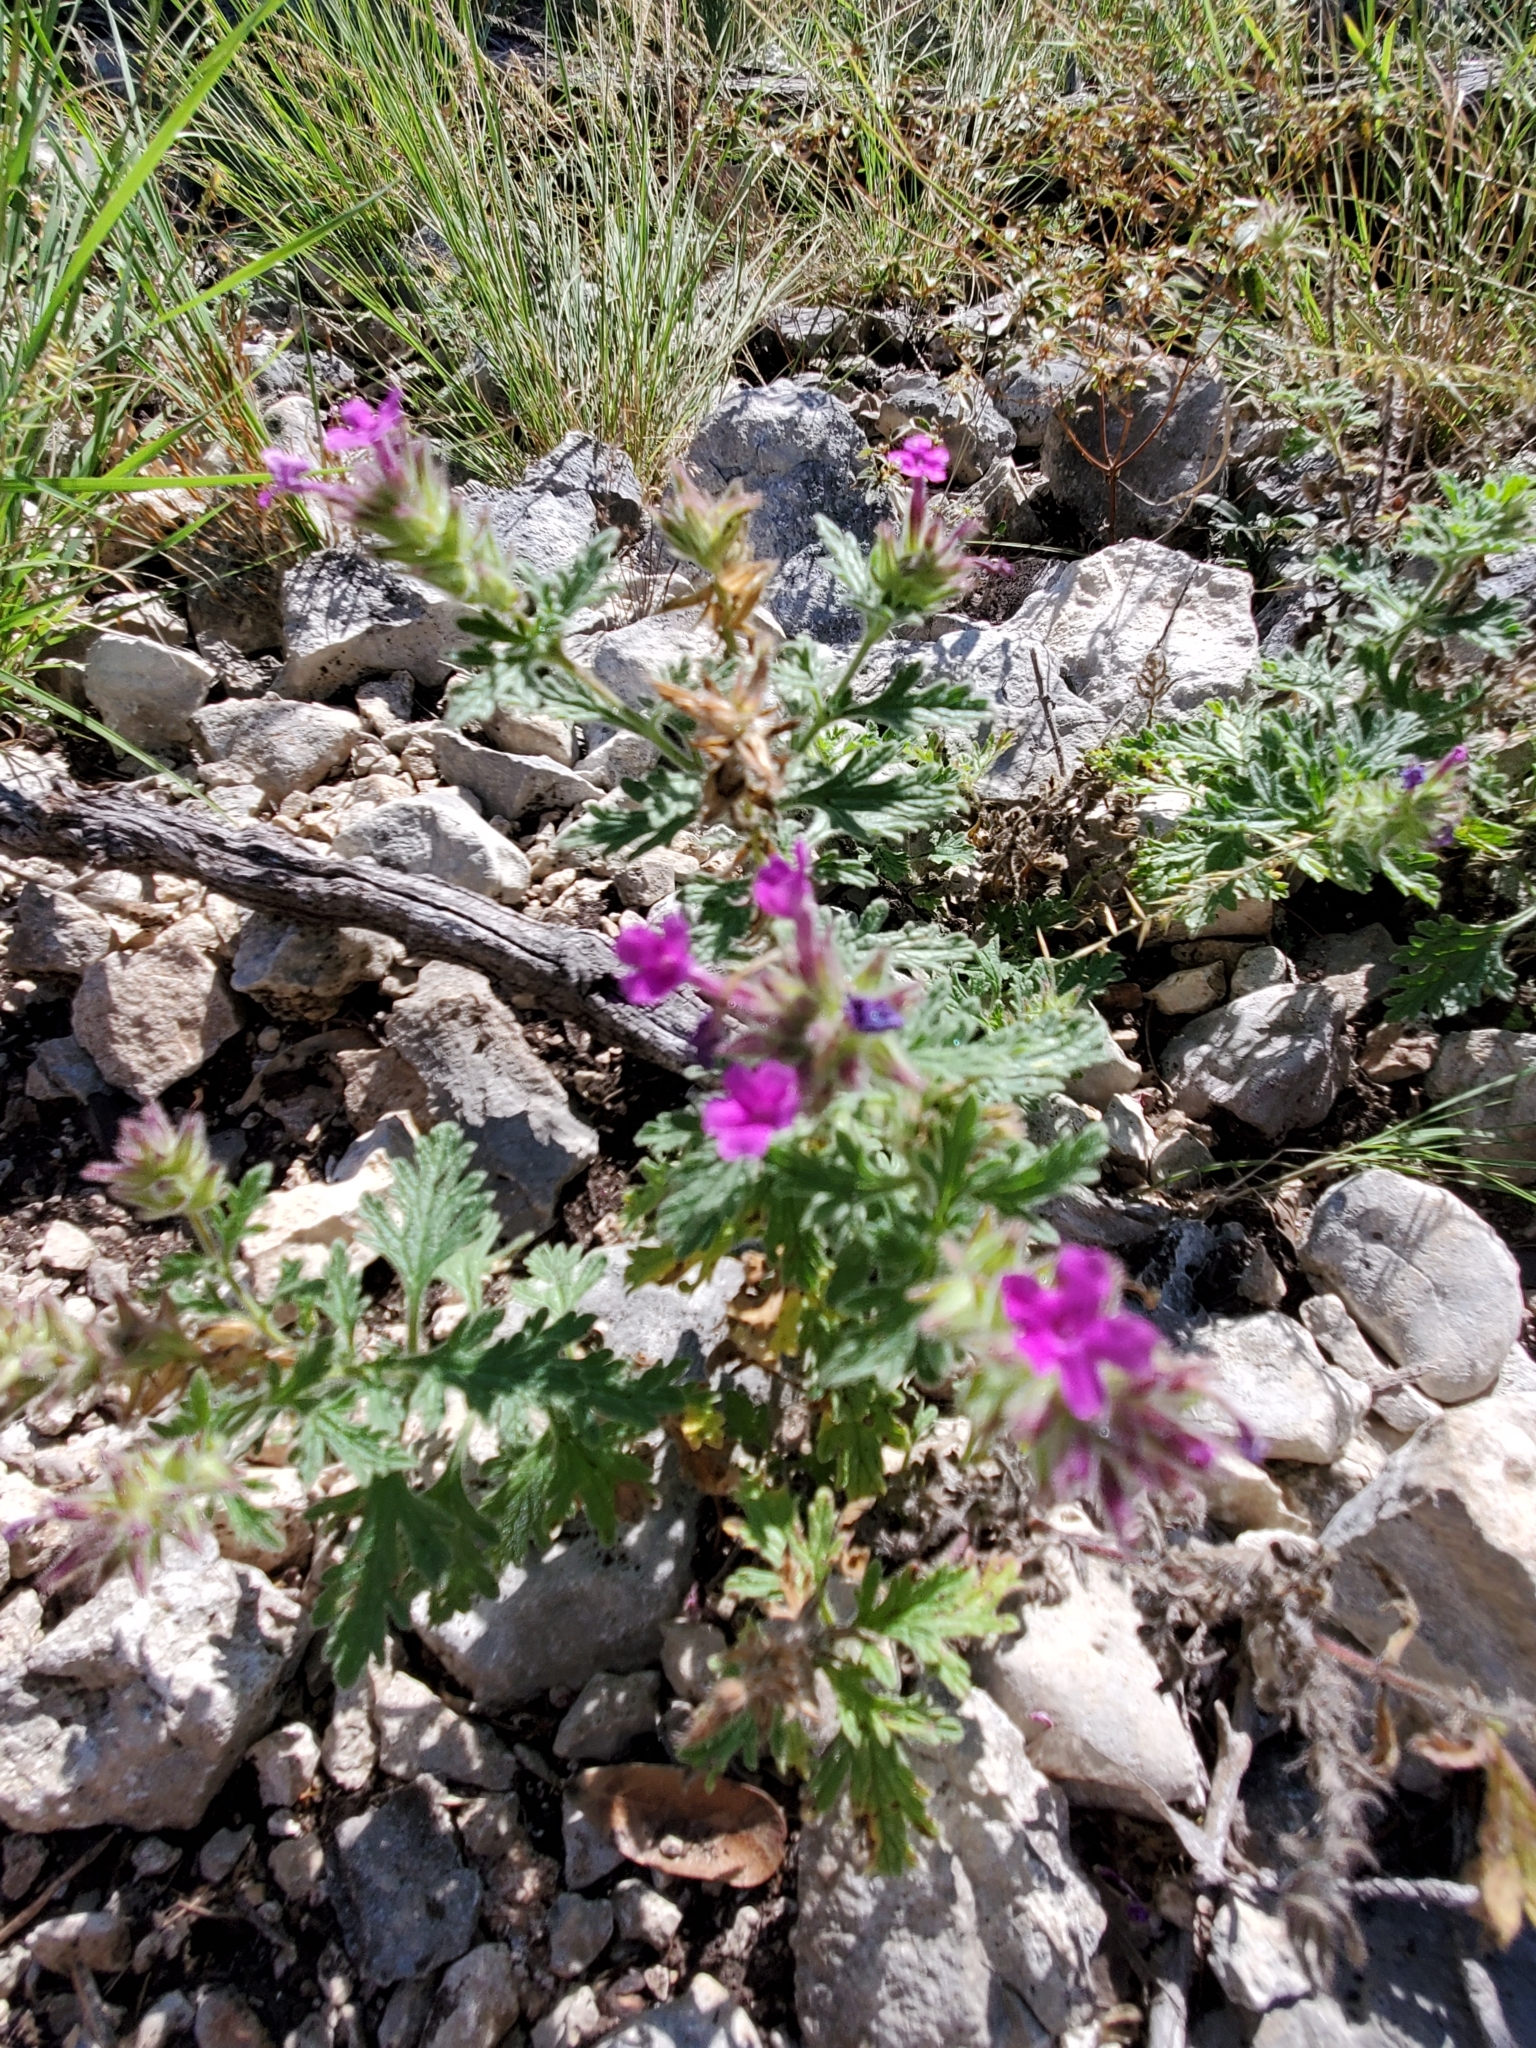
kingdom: Plantae
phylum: Tracheophyta
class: Magnoliopsida
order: Lamiales
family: Verbenaceae
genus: Verbena
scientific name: Verbena tumidula
